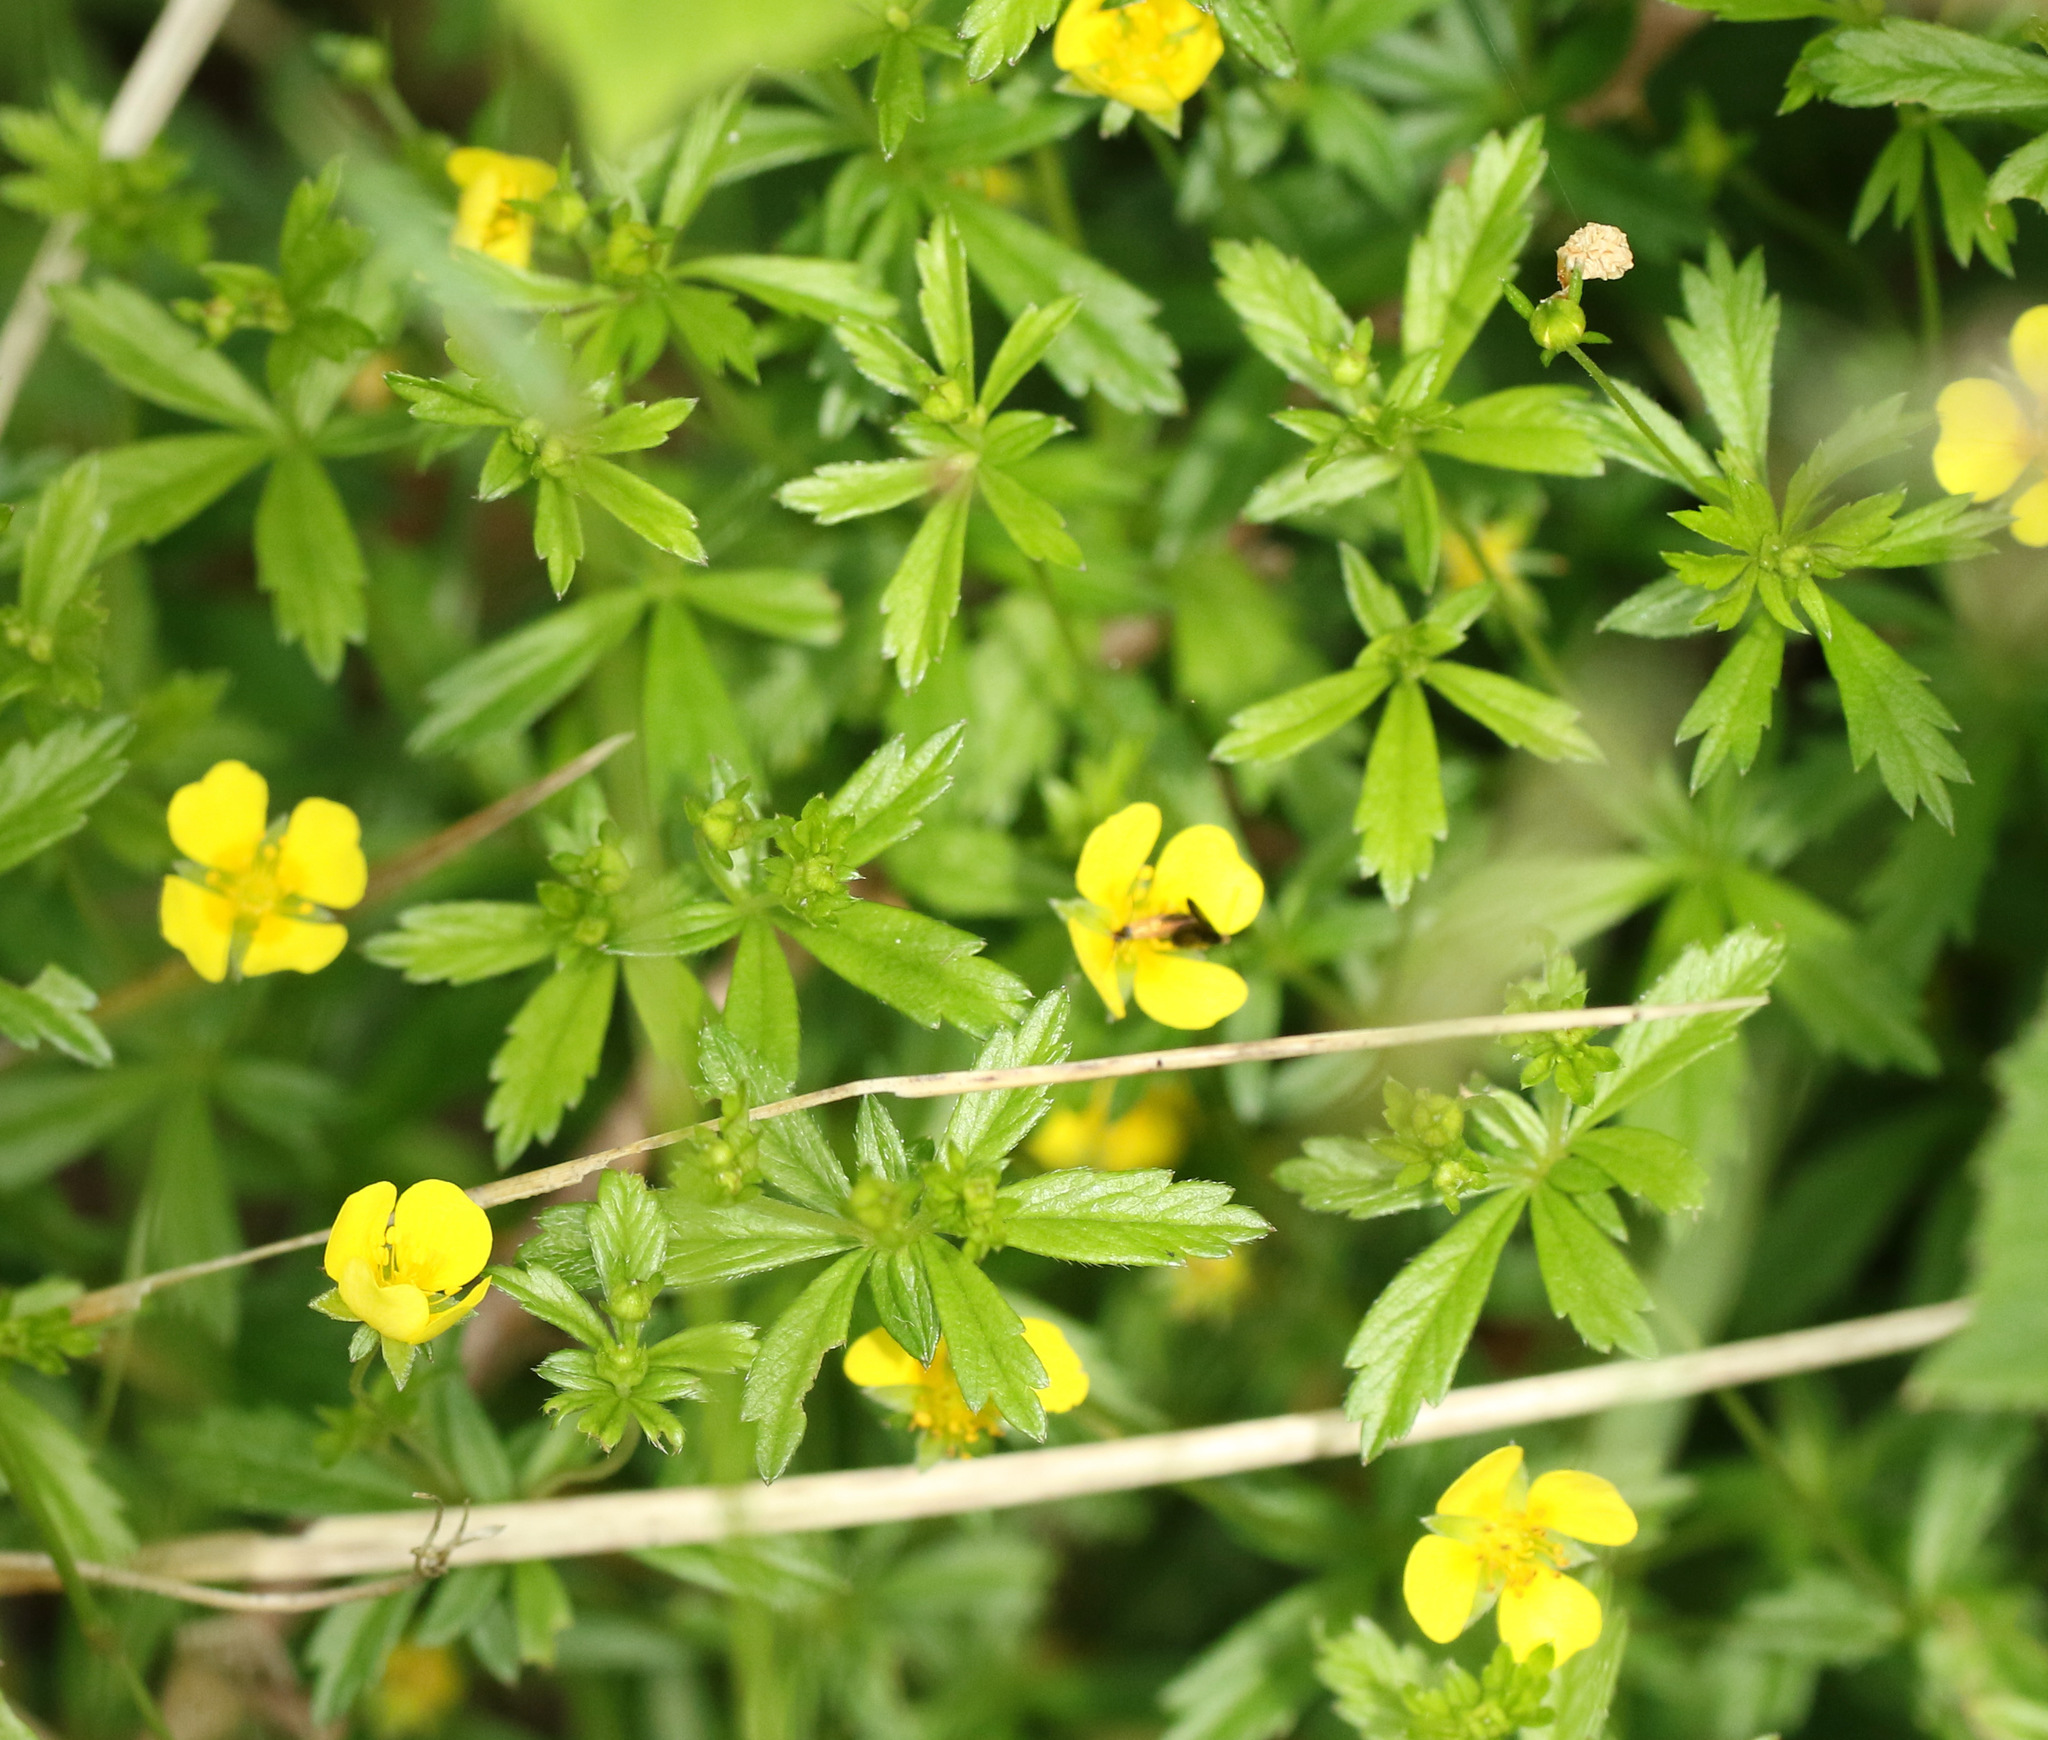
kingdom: Plantae
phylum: Tracheophyta
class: Magnoliopsida
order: Rosales
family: Rosaceae
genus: Potentilla
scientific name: Potentilla erecta
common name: Tormentil
